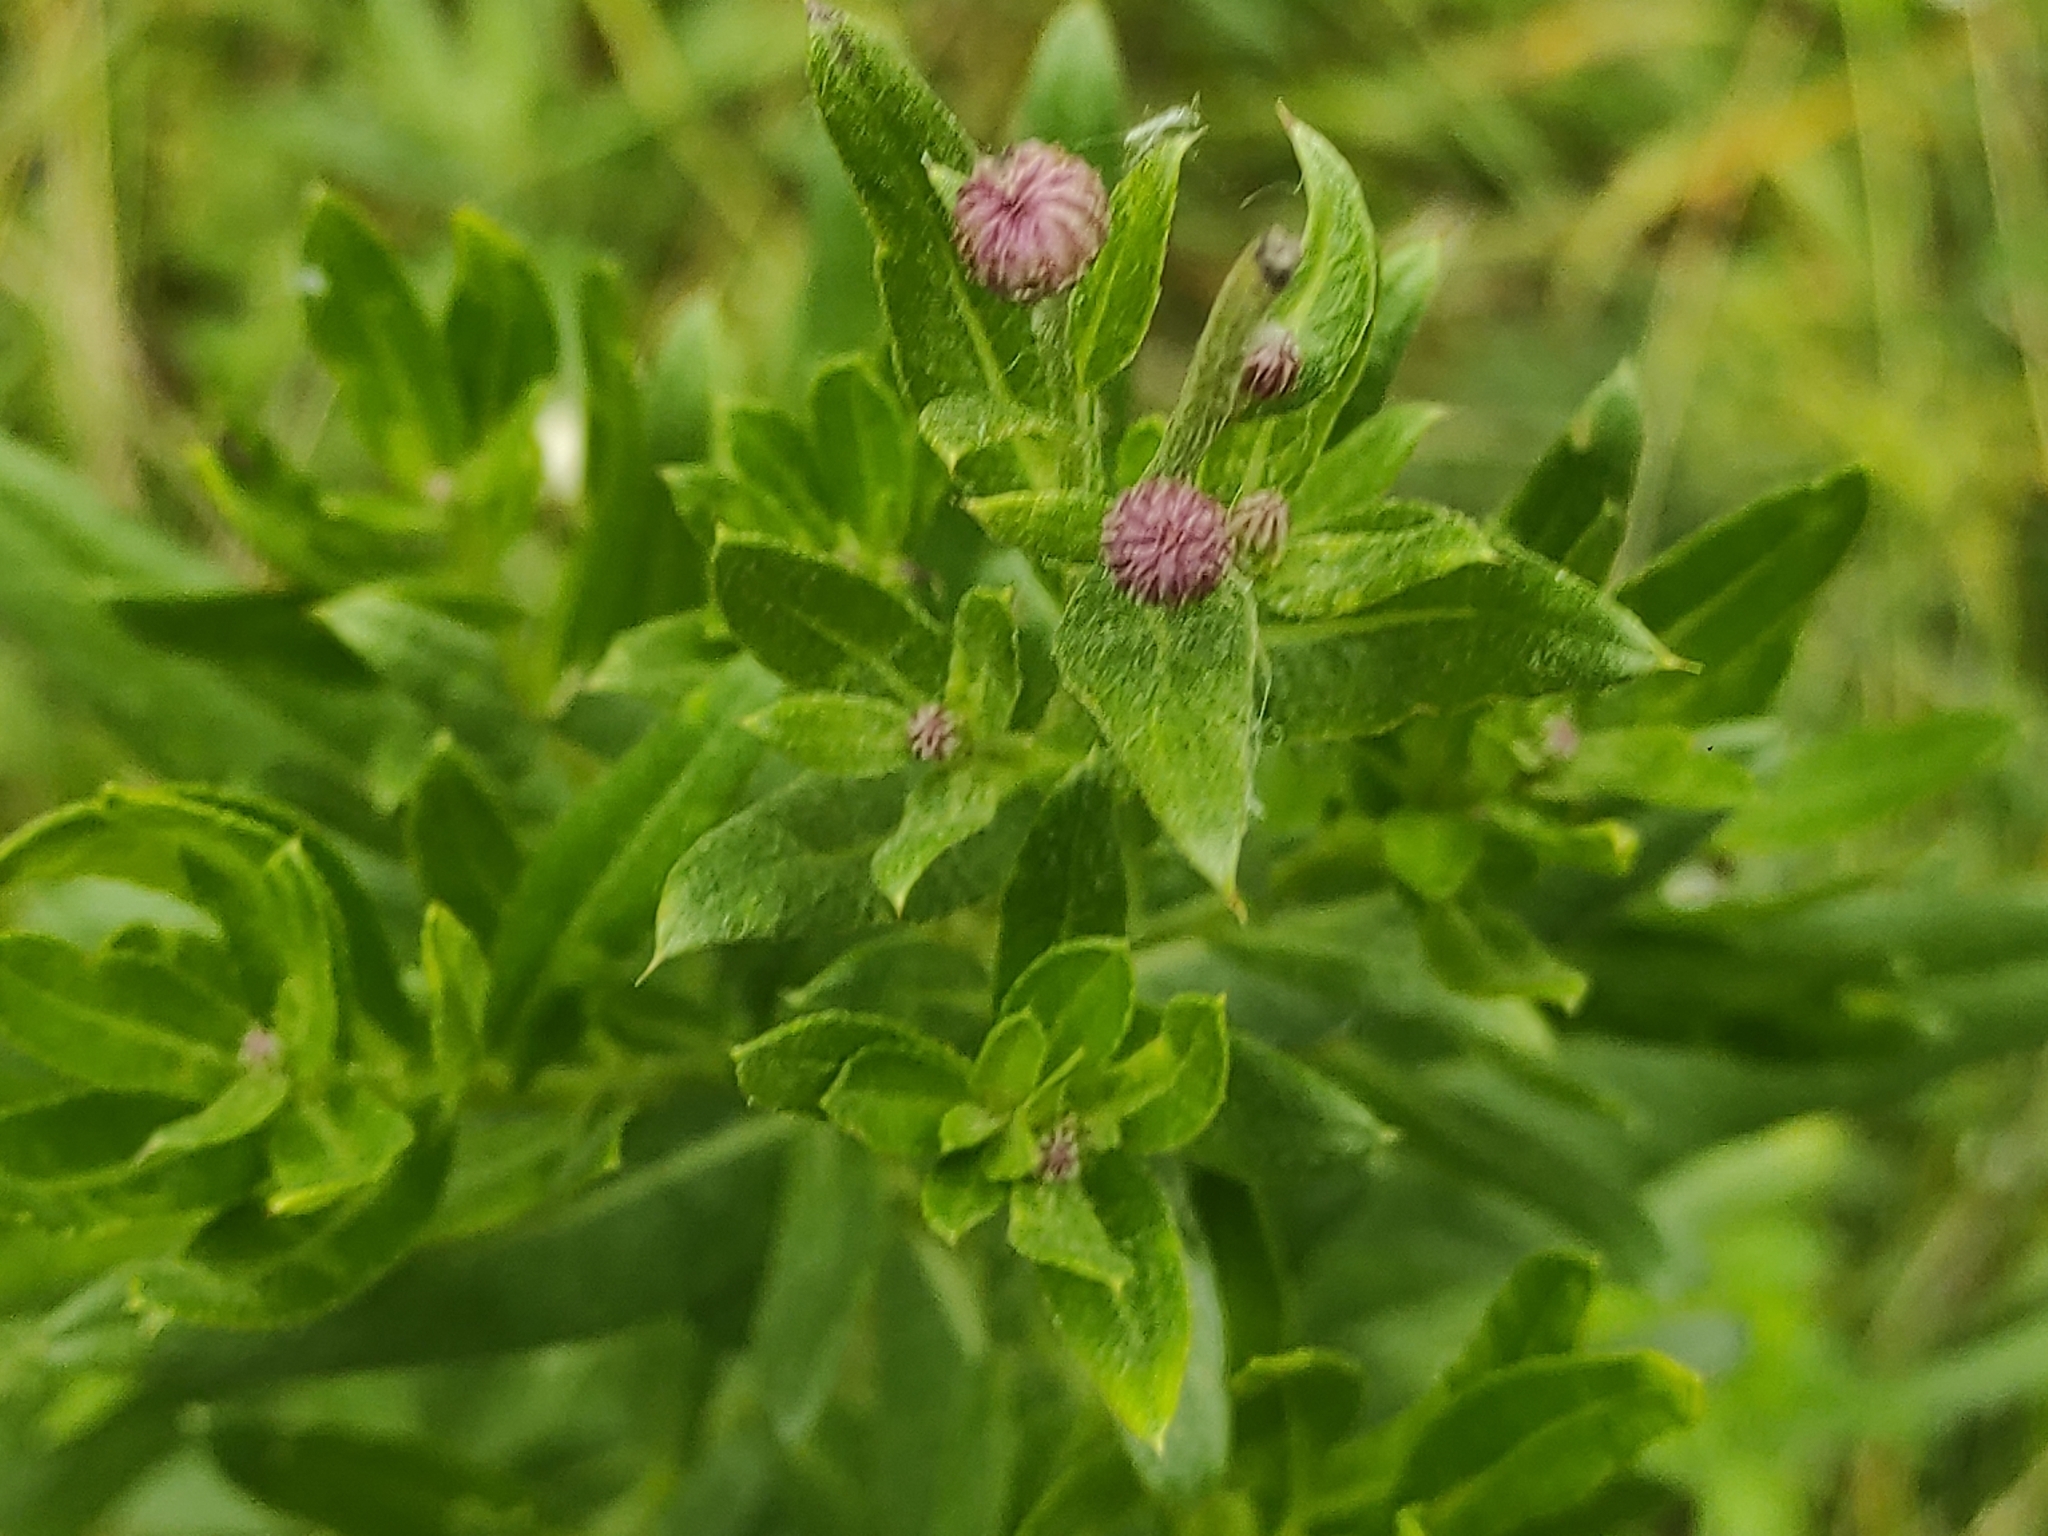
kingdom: Plantae
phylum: Tracheophyta
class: Magnoliopsida
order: Asterales
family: Asteraceae
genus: Cirsium
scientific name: Cirsium arvense
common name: Creeping thistle
